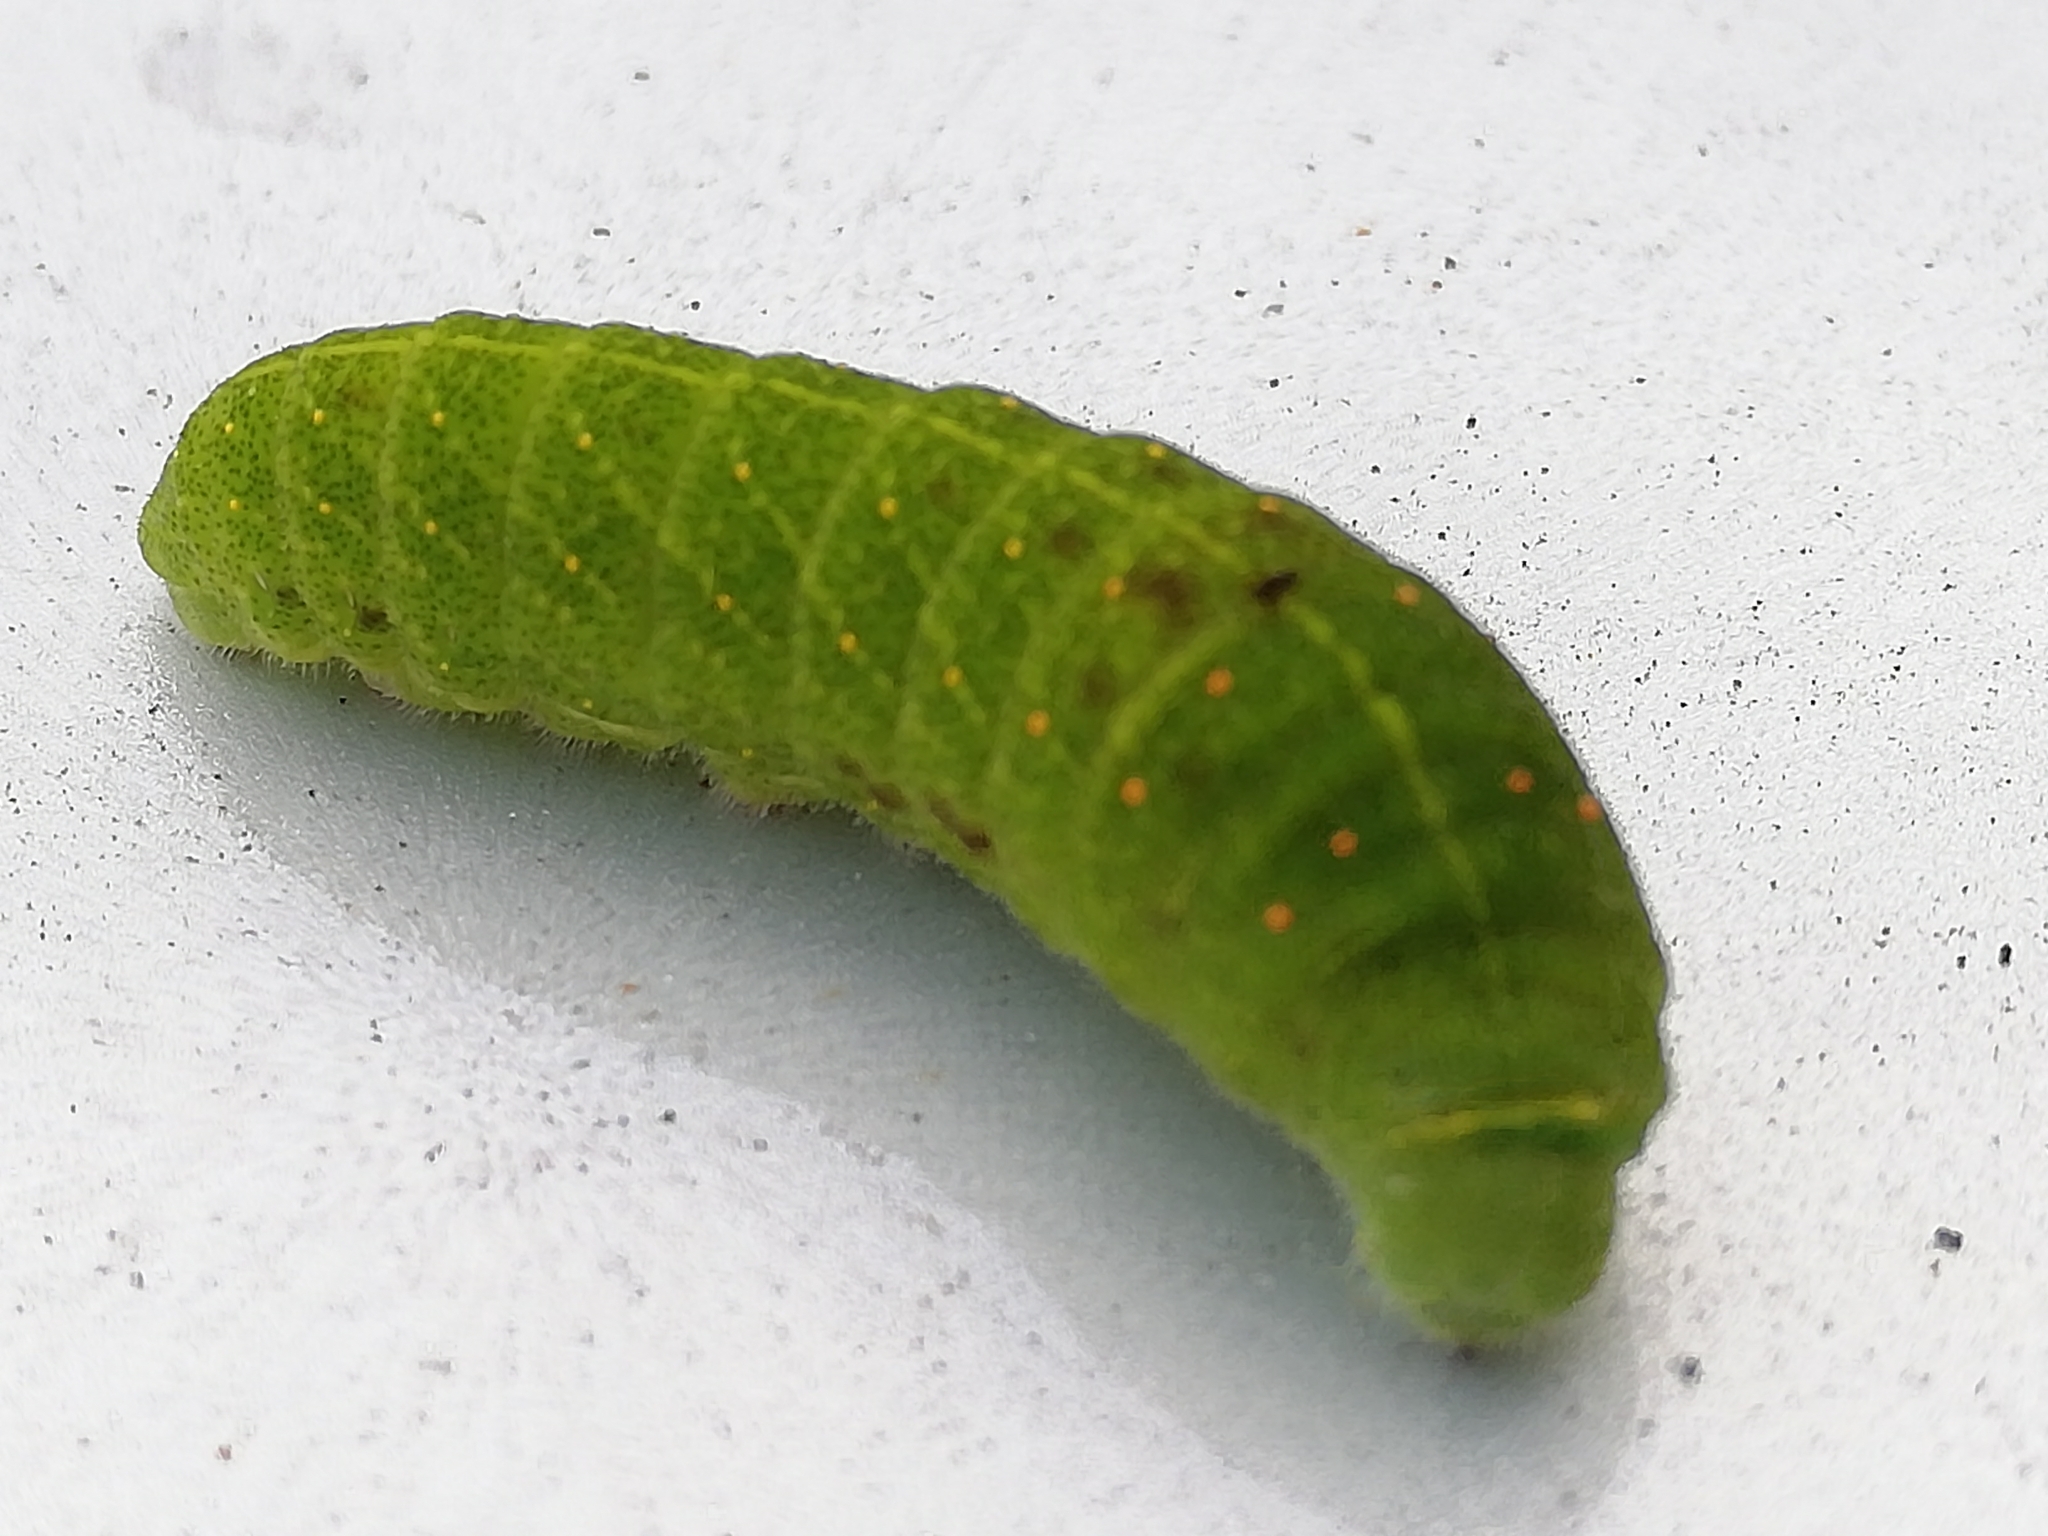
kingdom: Animalia
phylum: Arthropoda
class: Insecta
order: Lepidoptera
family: Papilionidae
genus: Iphiclides
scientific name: Iphiclides podalirius
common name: Scarce swallowtail
